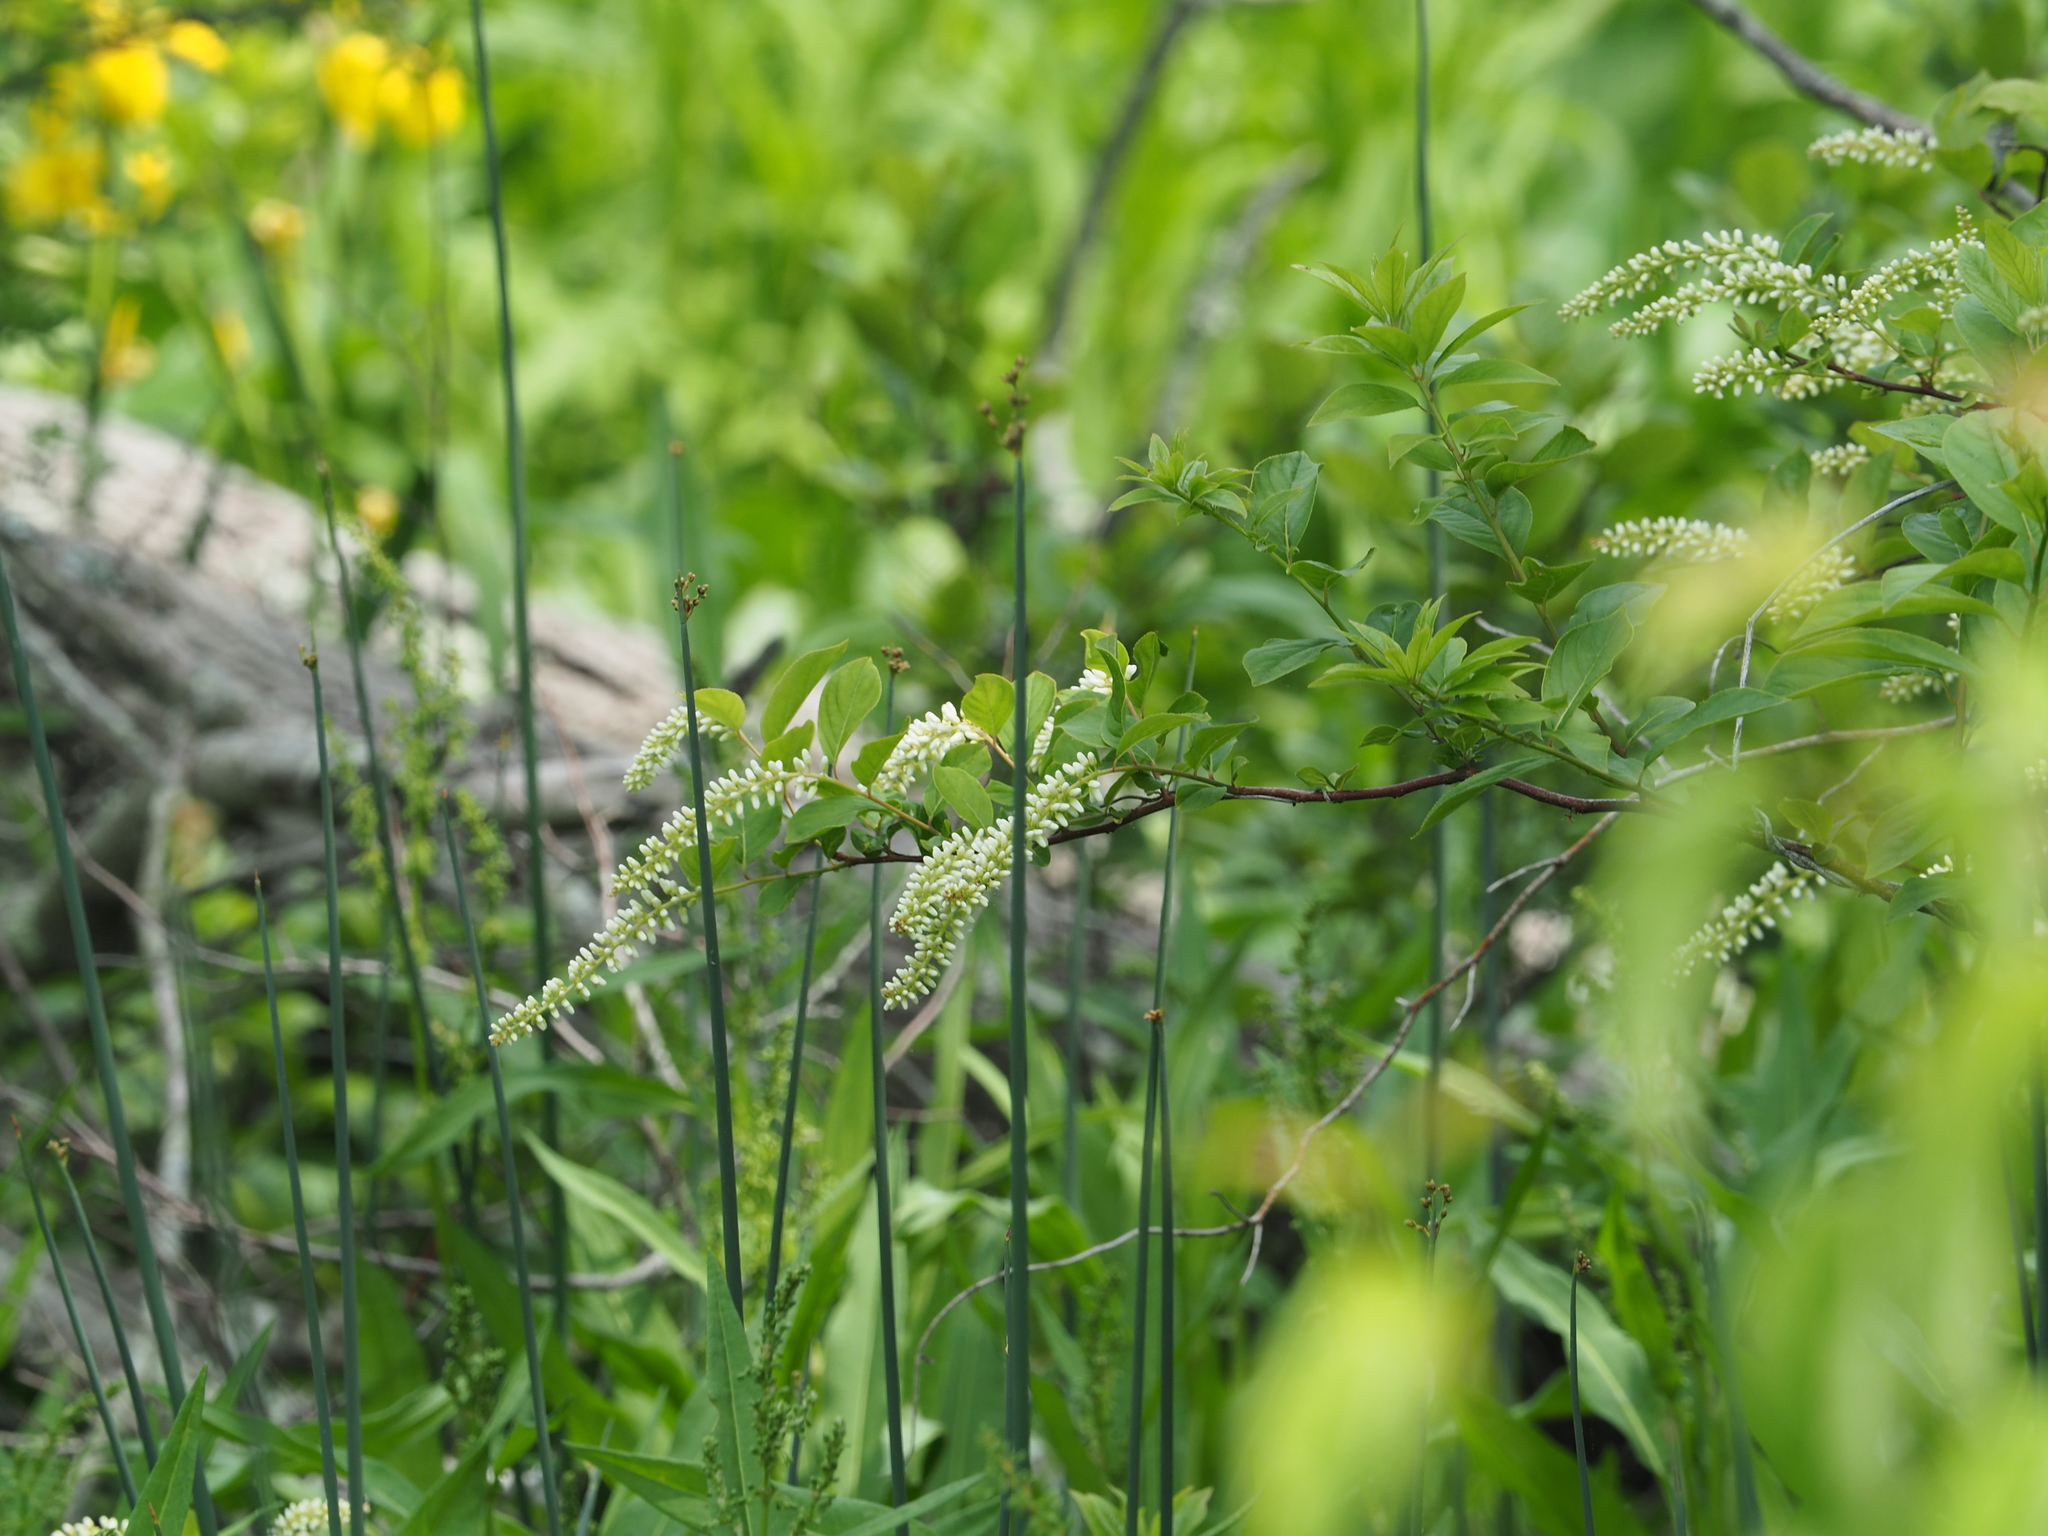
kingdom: Plantae
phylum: Tracheophyta
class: Magnoliopsida
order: Saxifragales
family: Iteaceae
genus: Itea
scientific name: Itea virginica
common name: Sweetspire
